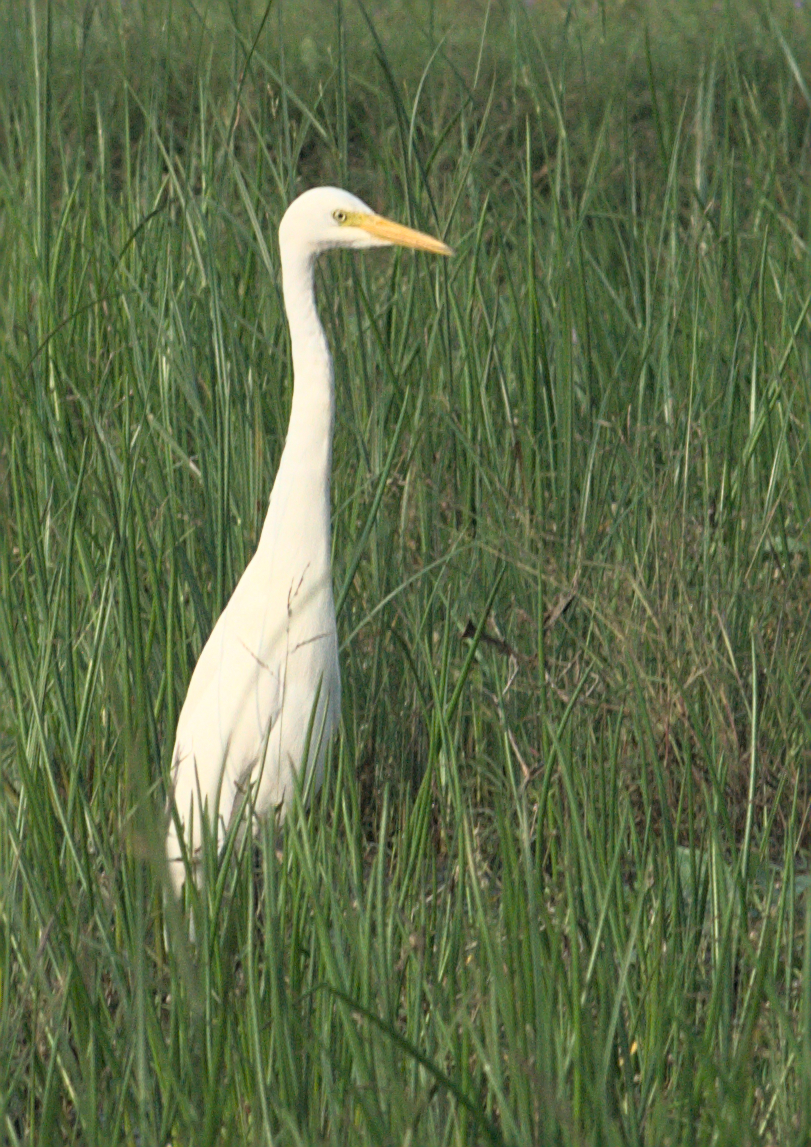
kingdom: Animalia
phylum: Chordata
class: Aves
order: Pelecaniformes
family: Ardeidae
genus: Egretta
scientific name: Egretta intermedia
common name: Intermediate egret
